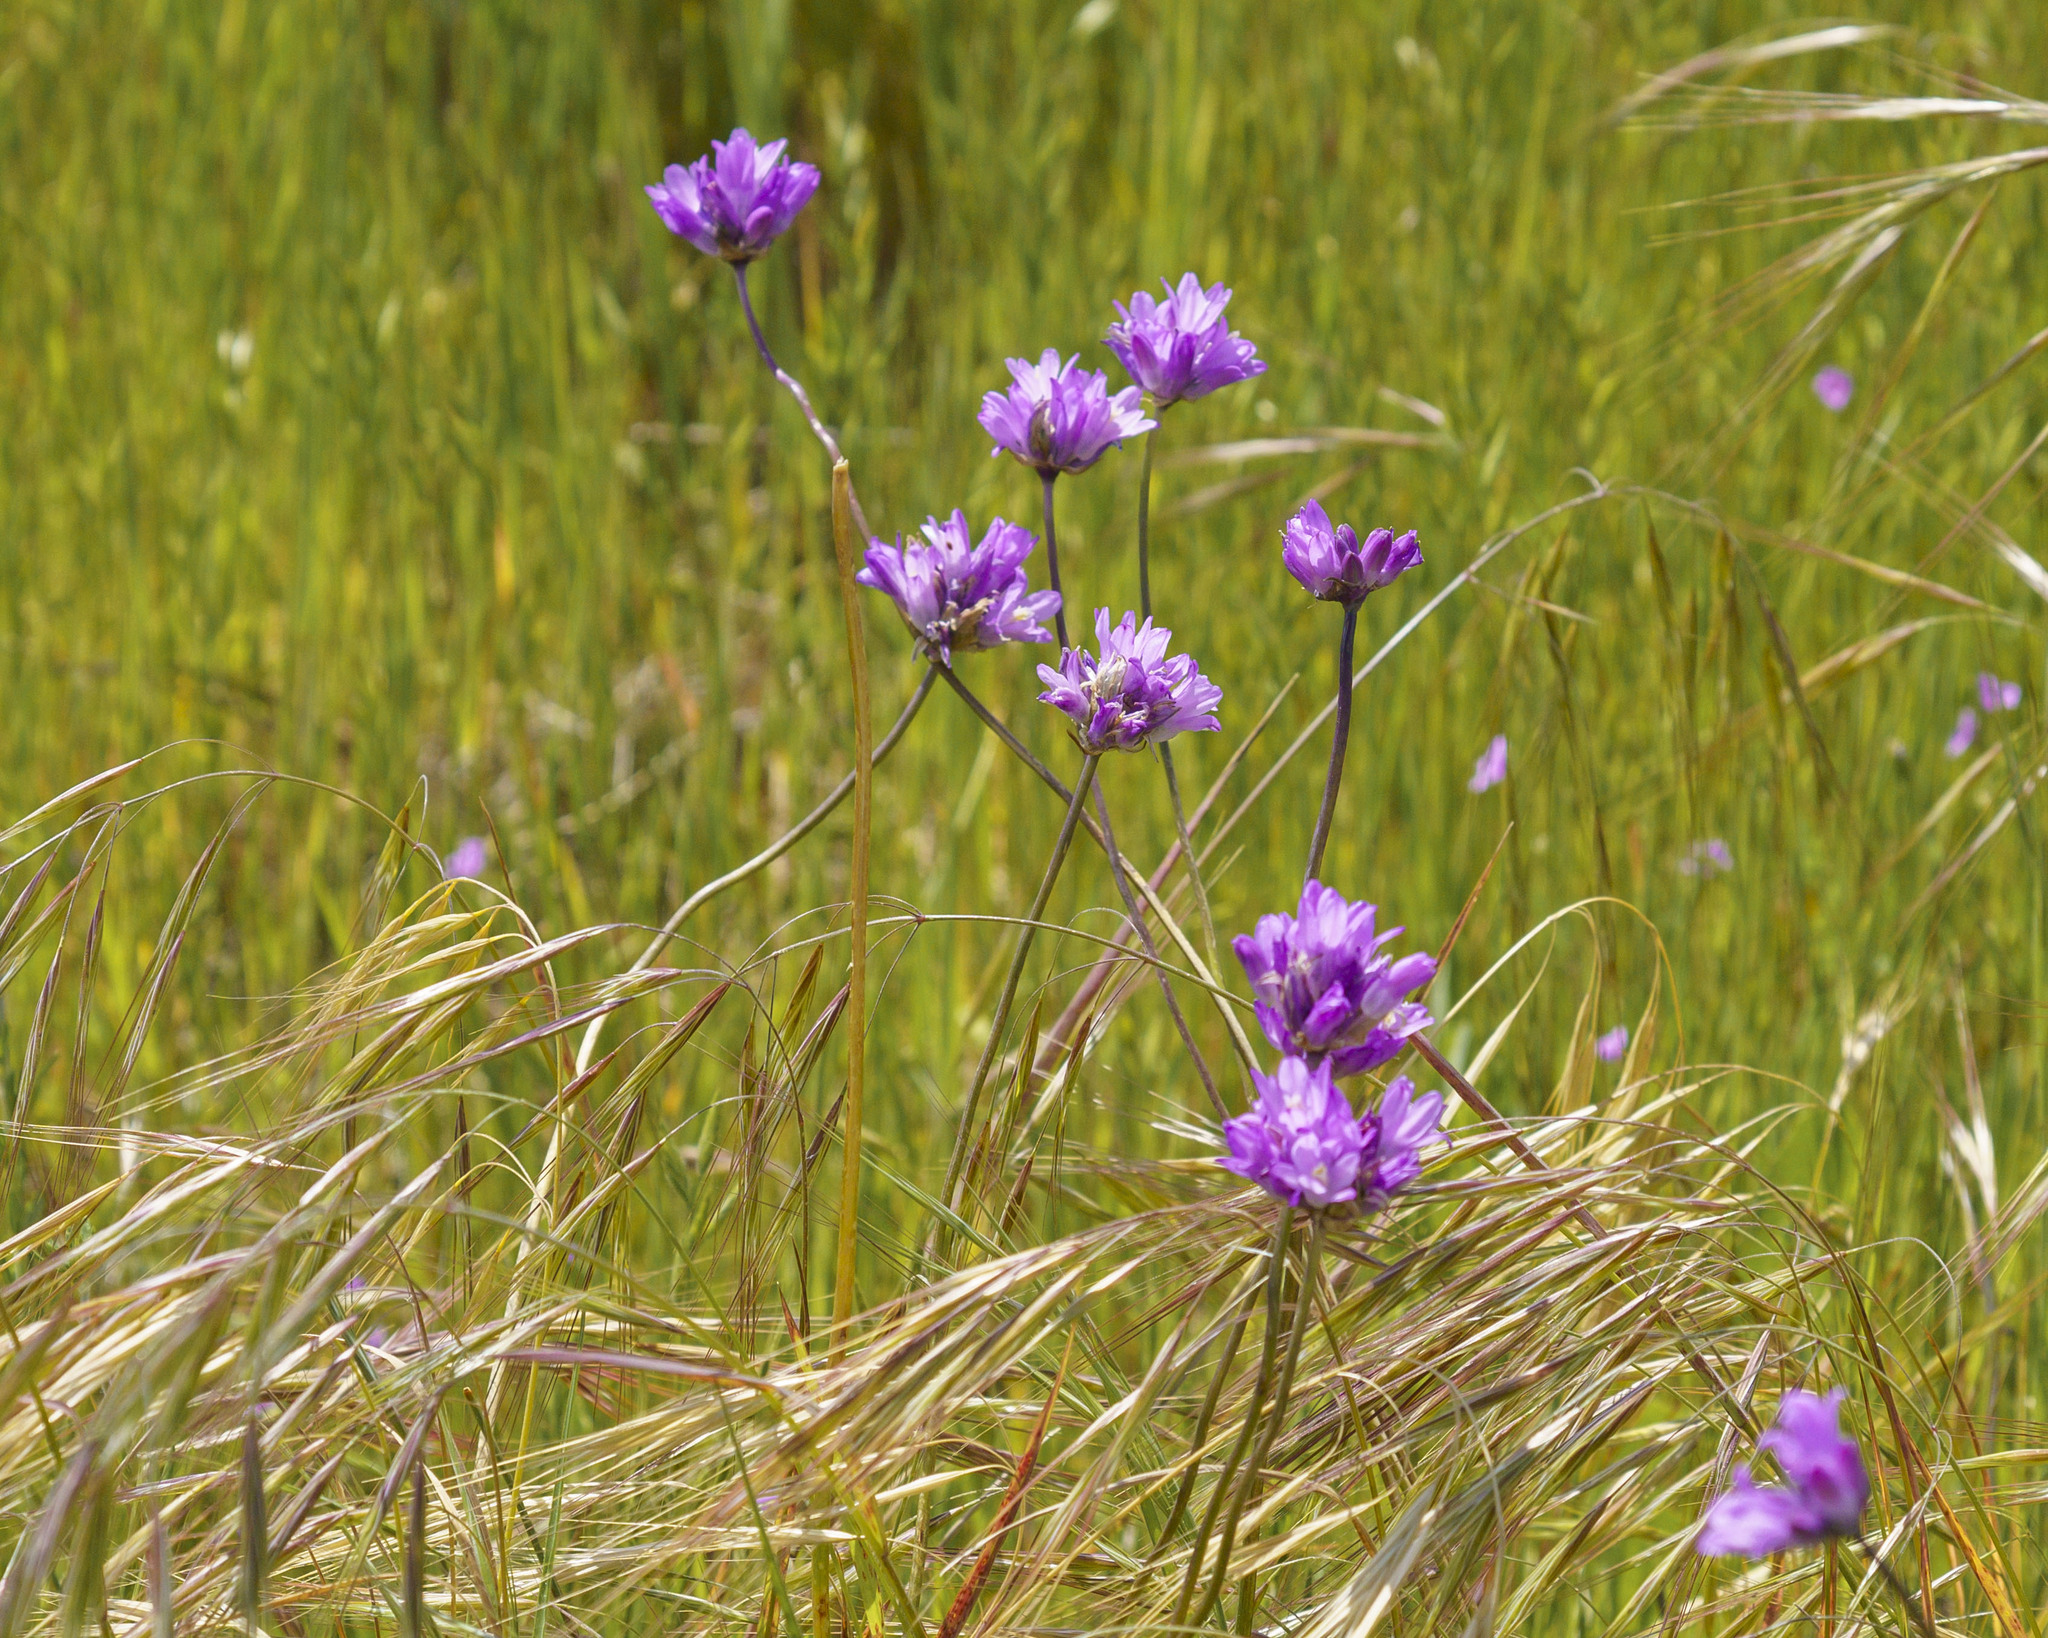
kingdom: Plantae
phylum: Tracheophyta
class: Liliopsida
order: Asparagales
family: Asparagaceae
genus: Dipterostemon
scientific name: Dipterostemon capitatus
